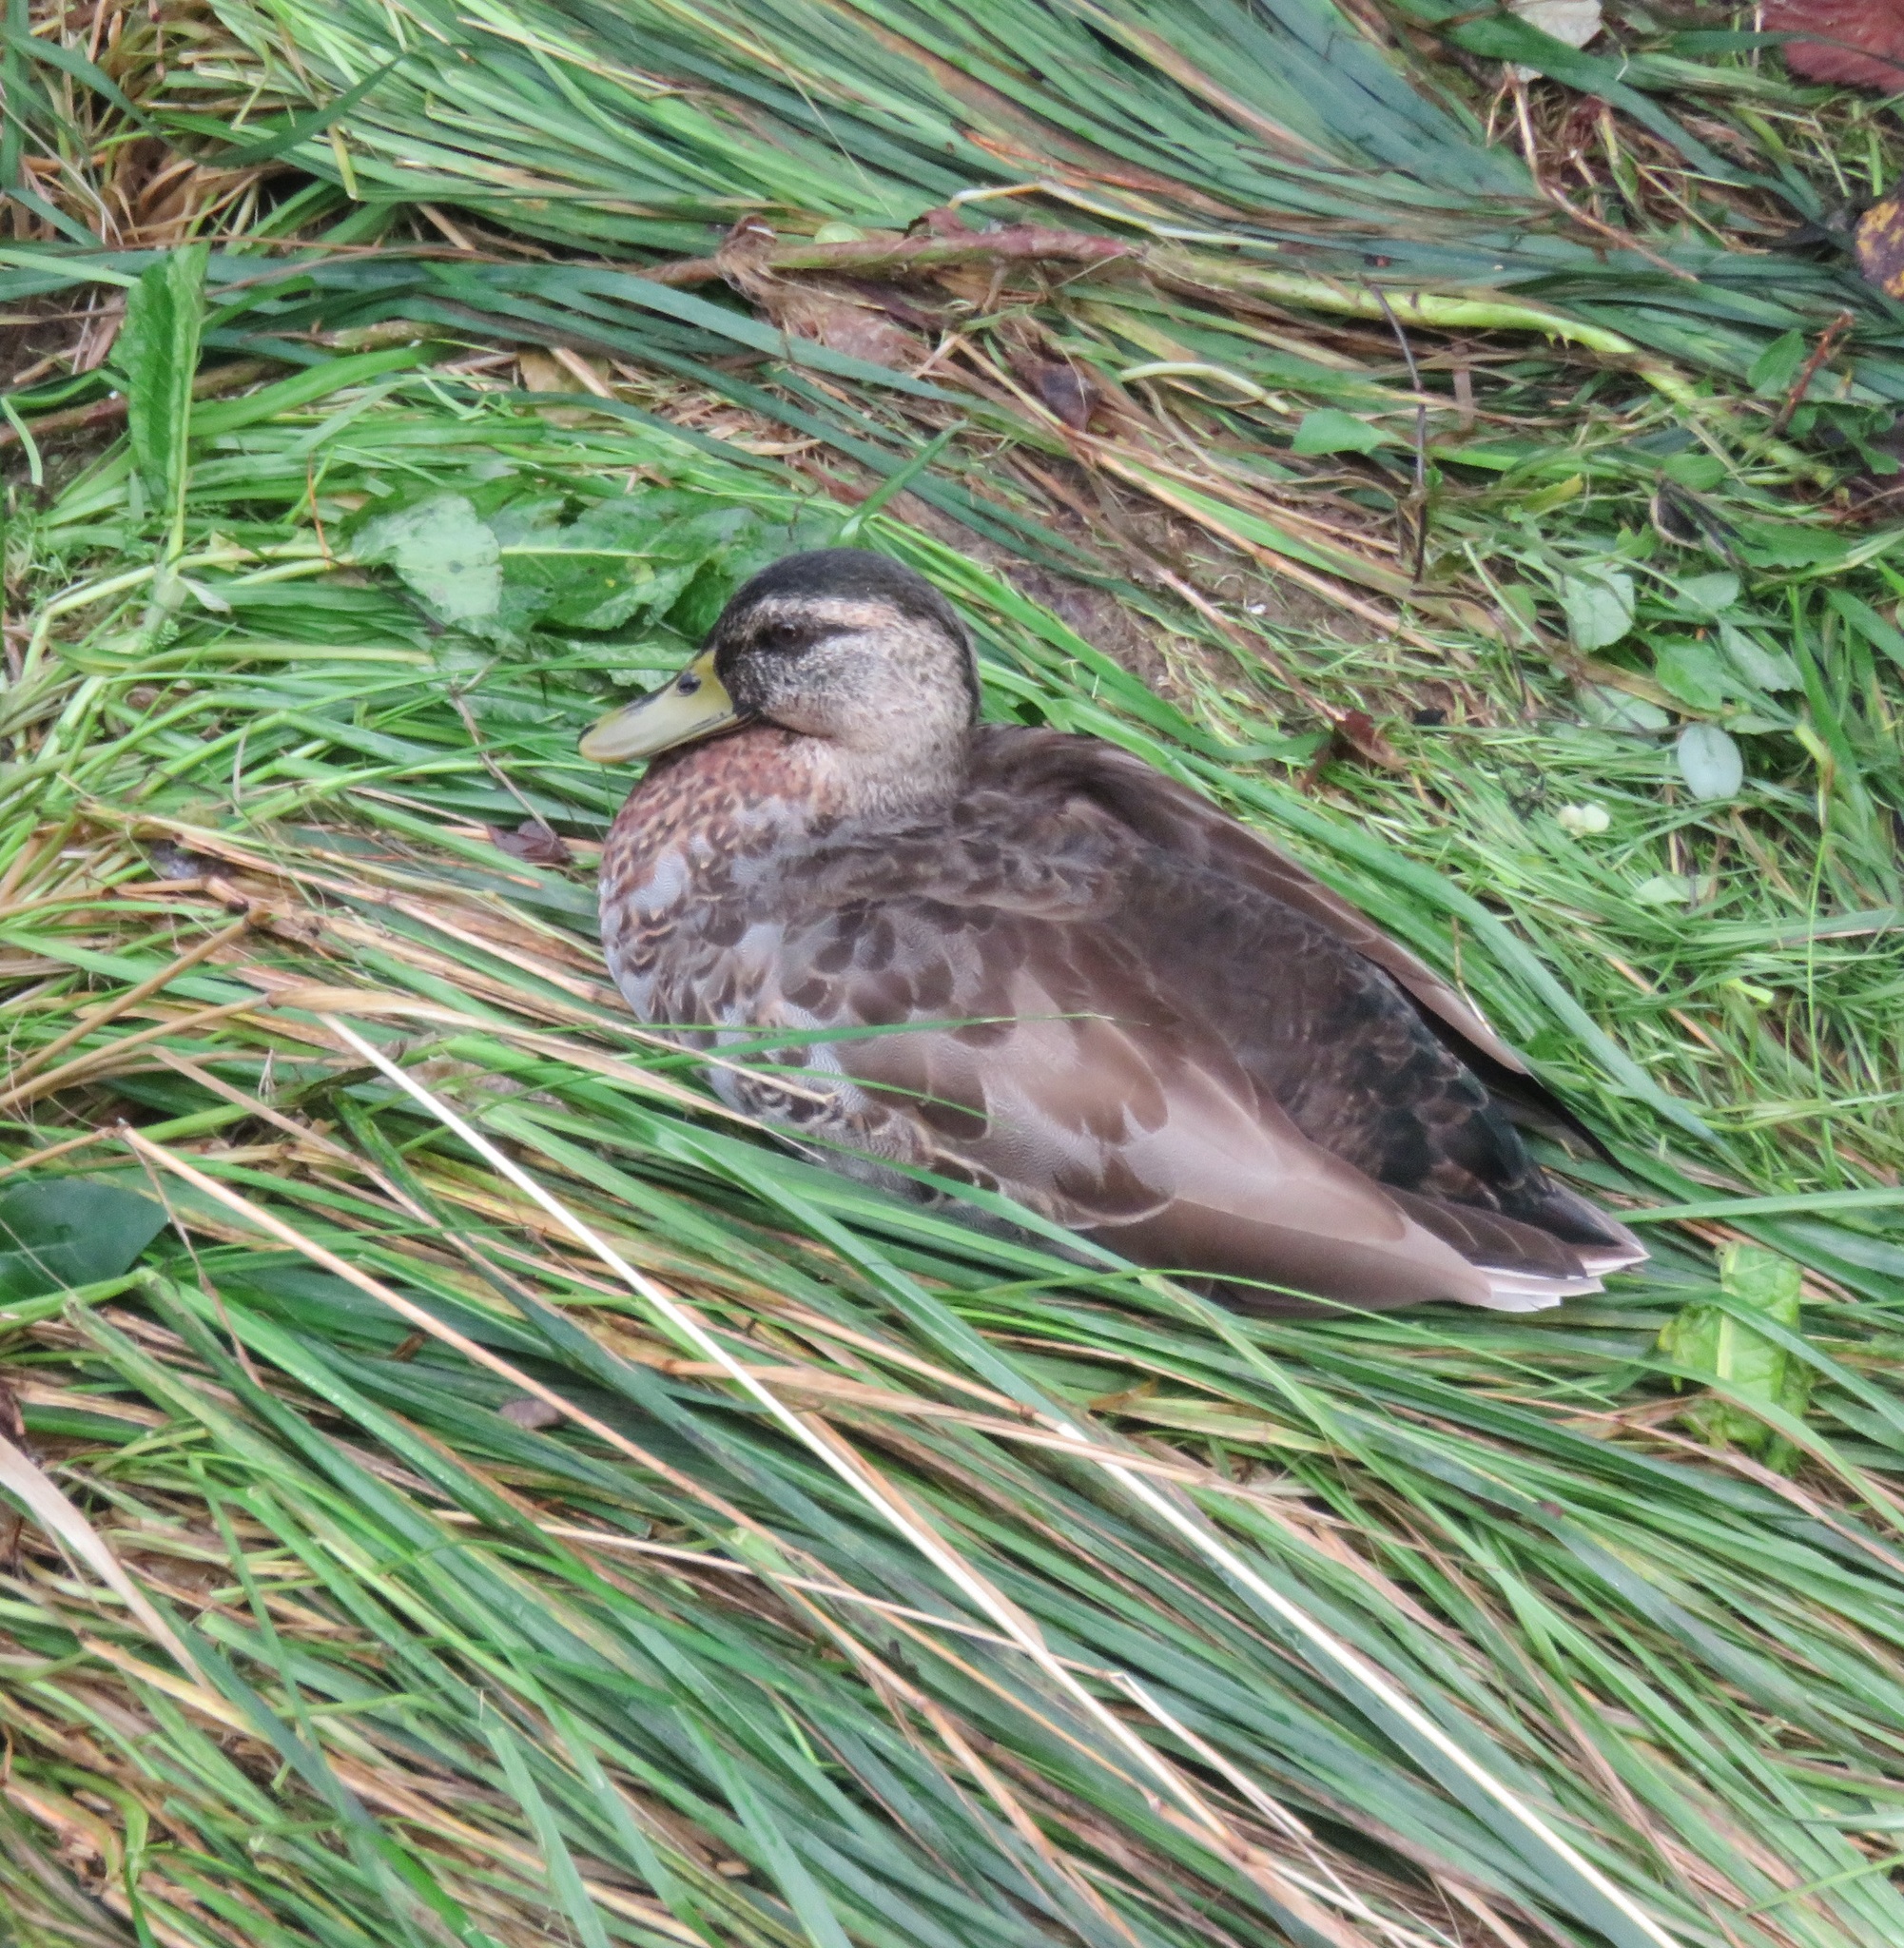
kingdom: Animalia
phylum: Chordata
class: Aves
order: Anseriformes
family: Anatidae
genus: Anas
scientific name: Anas
